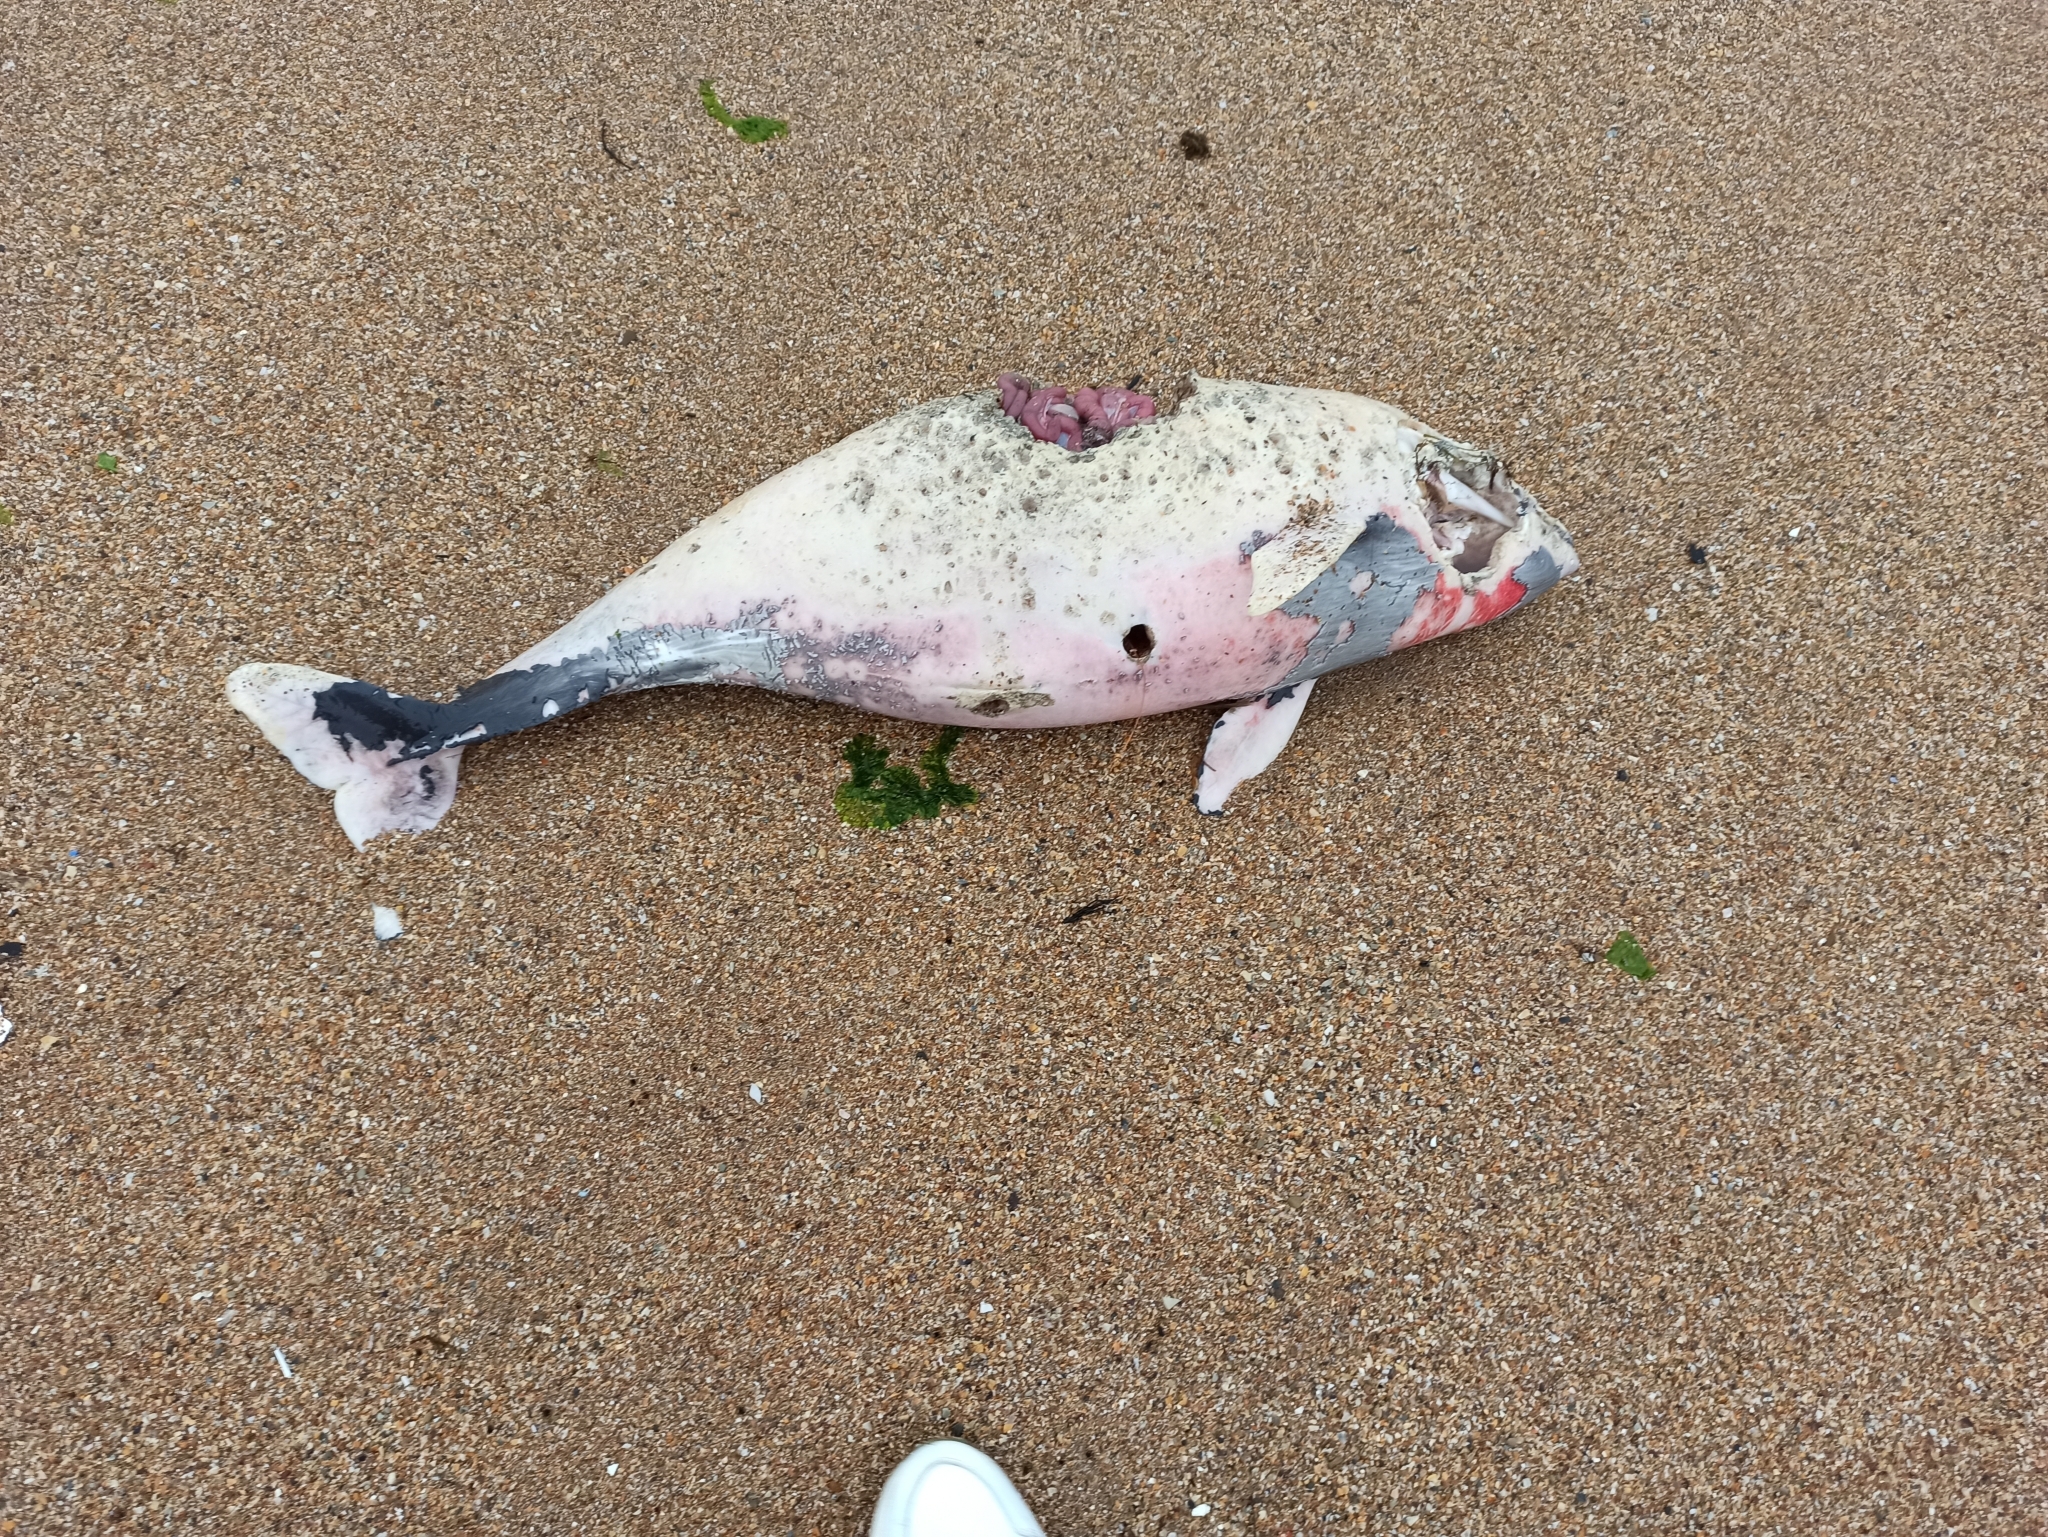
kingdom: Animalia
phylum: Chordata
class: Mammalia
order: Cetacea
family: Phocoenidae
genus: Phocoena
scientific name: Phocoena phocoena
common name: Harbor porpoise
